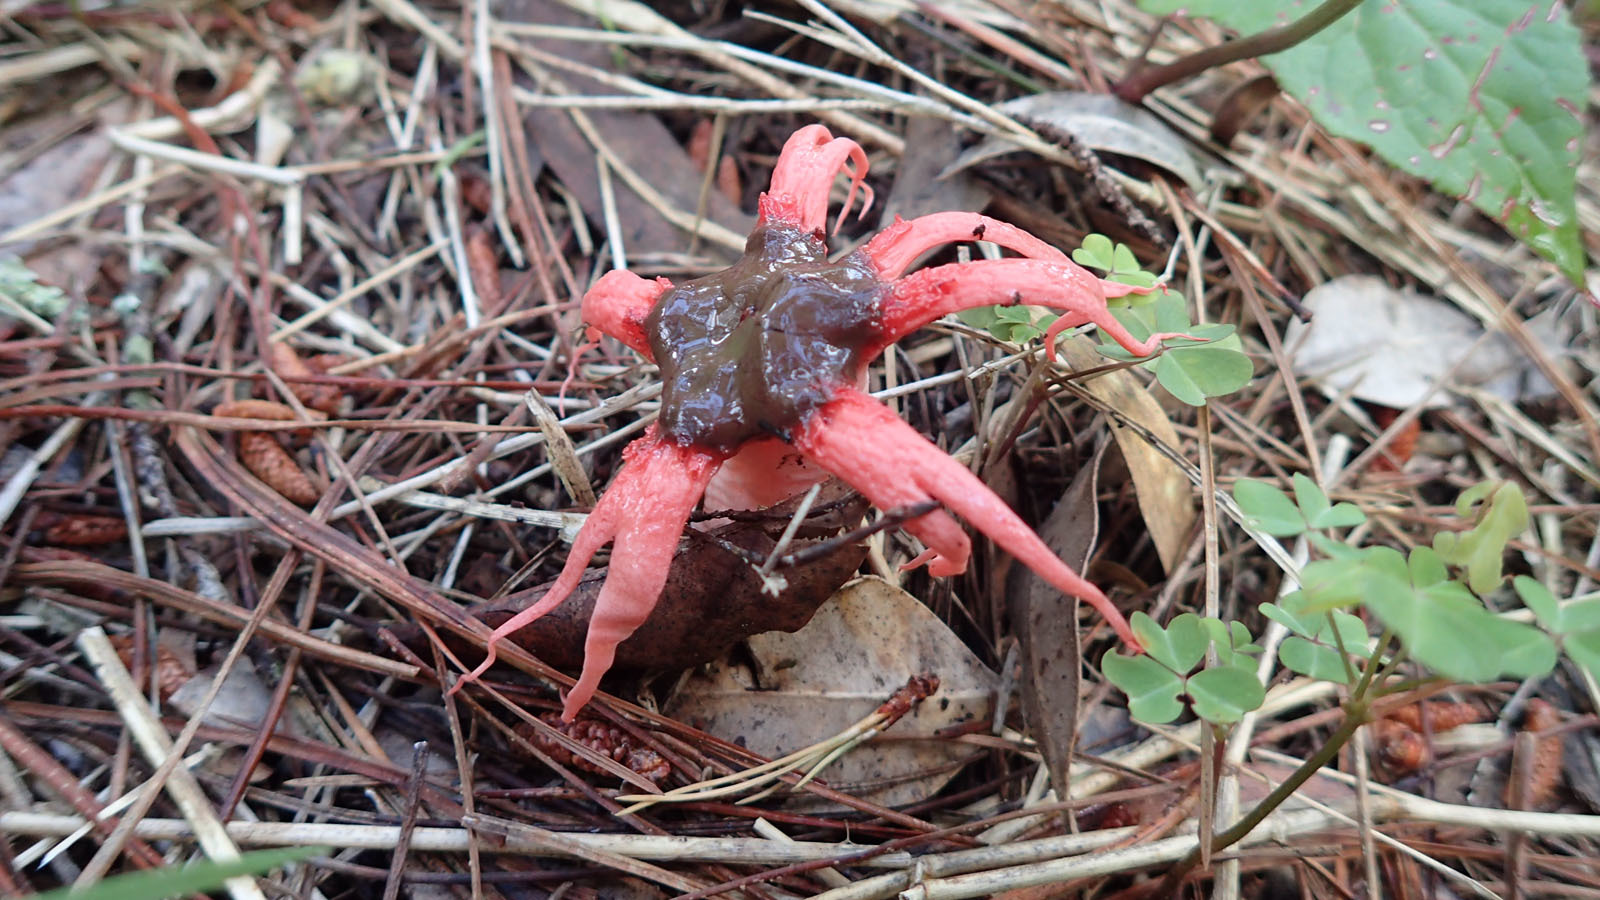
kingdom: Fungi
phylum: Basidiomycota
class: Agaricomycetes
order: Phallales
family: Phallaceae
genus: Aseroe
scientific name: Aseroe rubra
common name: Starfish fungus
